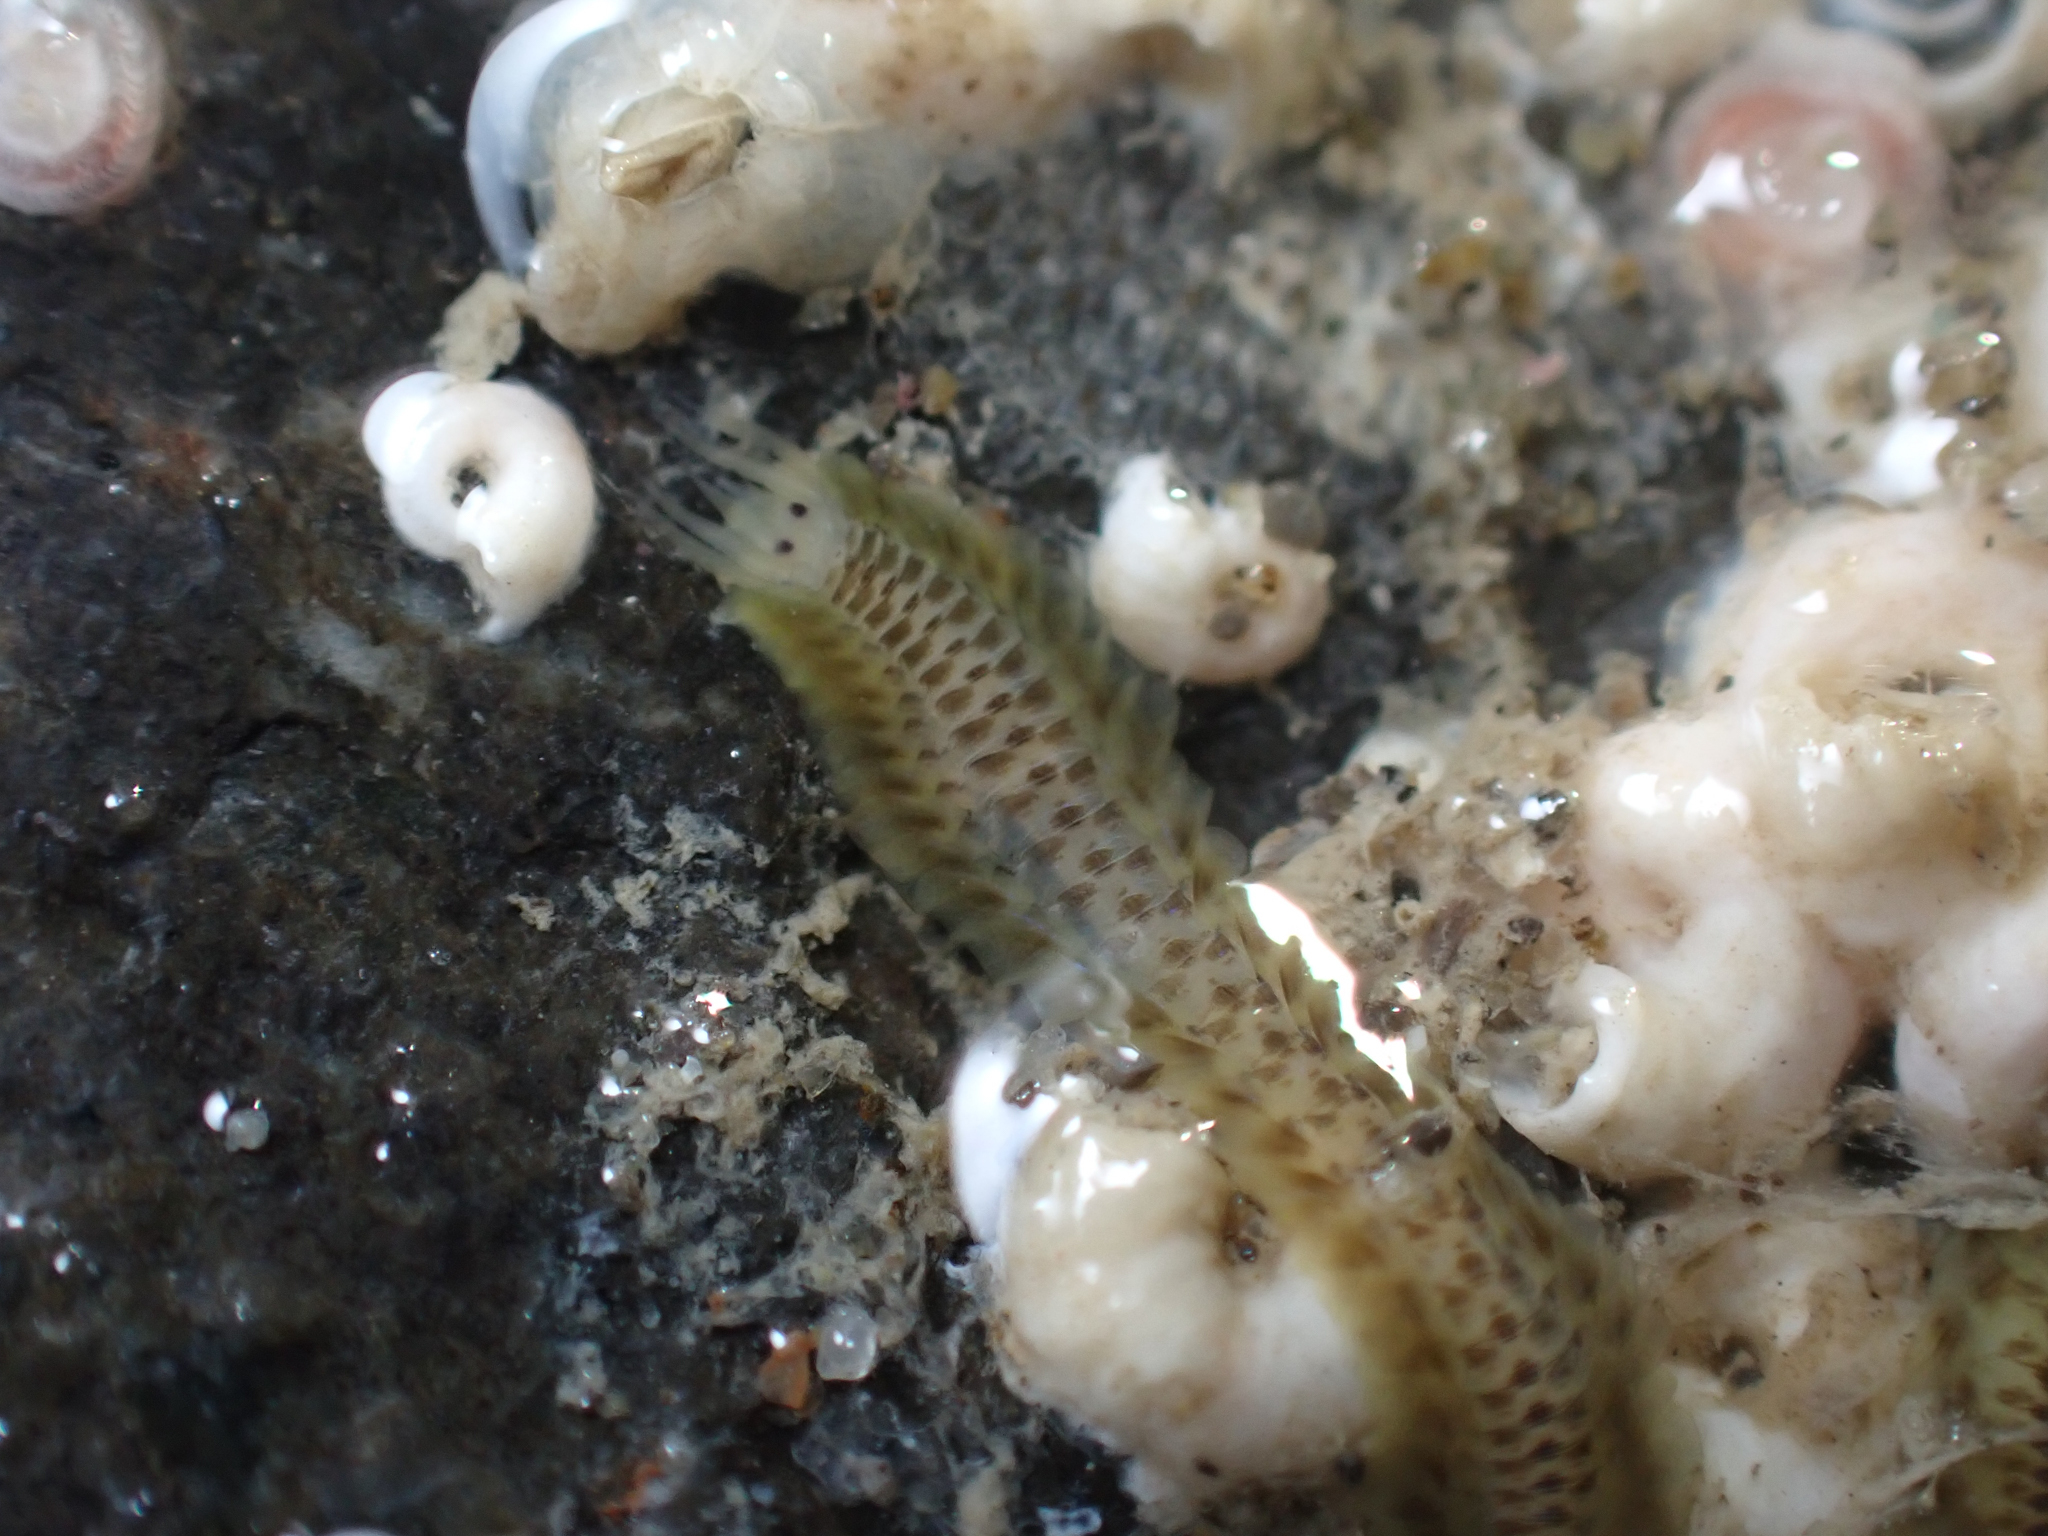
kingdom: Animalia
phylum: Annelida
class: Polychaeta
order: Phyllodocida
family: Phyllodocidae
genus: Phyllodoce
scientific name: Phyllodoce williamsi
